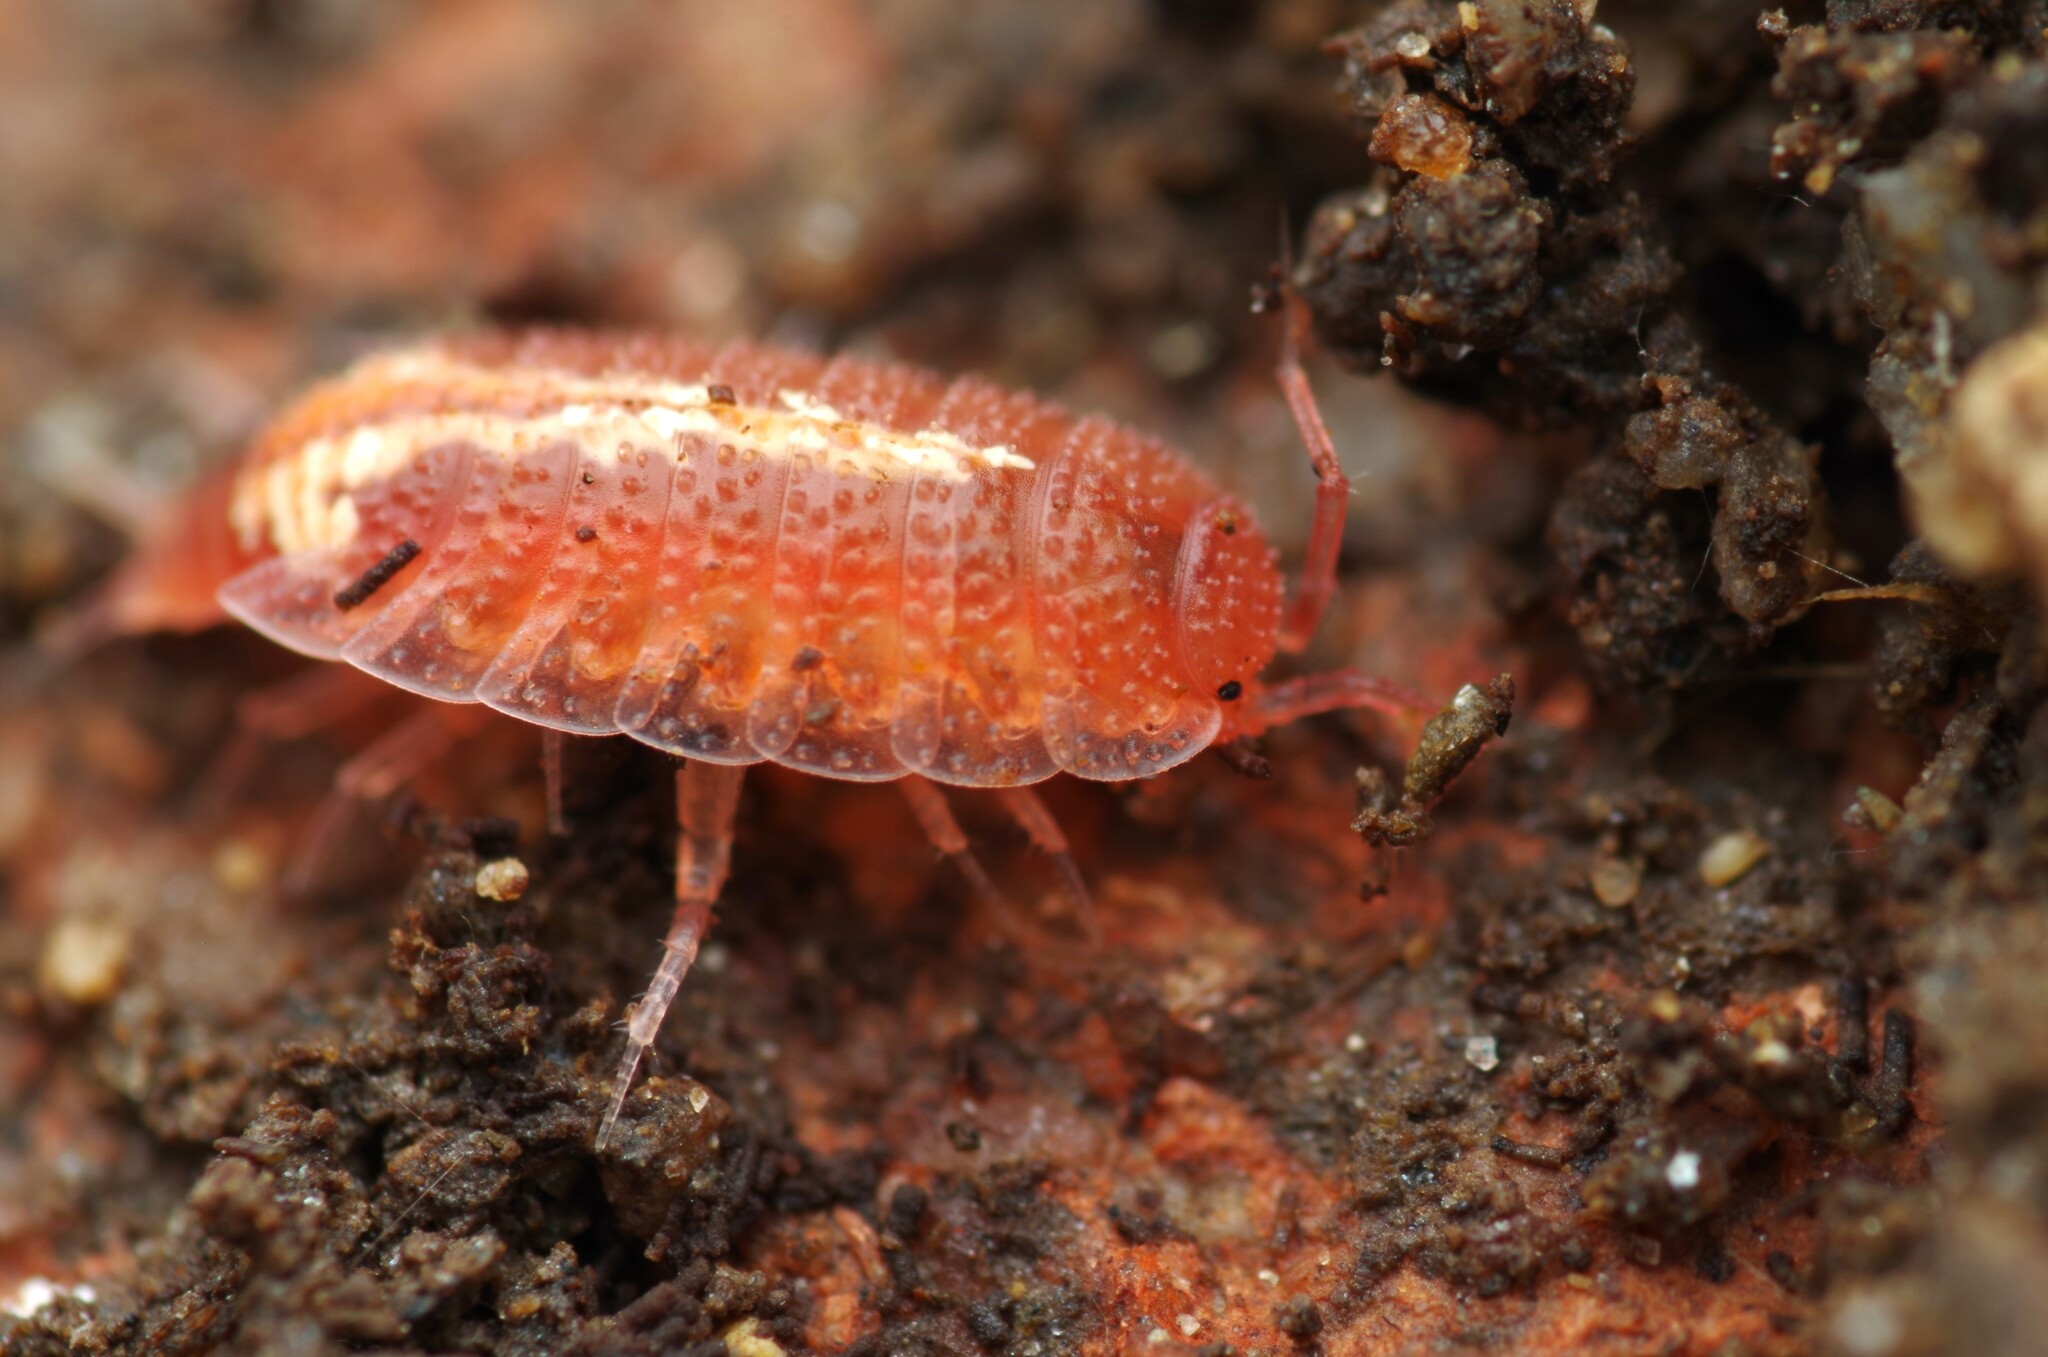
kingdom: Animalia
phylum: Arthropoda
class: Malacostraca
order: Isopoda
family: Trichoniscidae
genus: Androniscus
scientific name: Androniscus dentiger
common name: Rosy woodlouse
